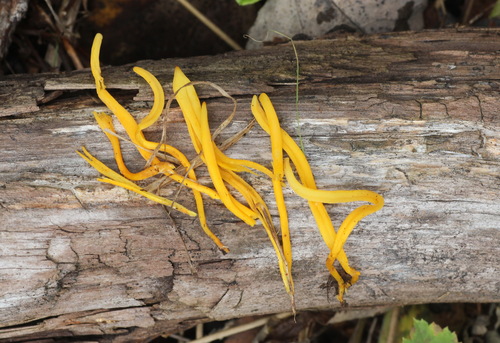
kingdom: Fungi
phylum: Basidiomycota
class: Agaricomycetes
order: Agaricales
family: Clavariaceae
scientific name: Clavariaceae
